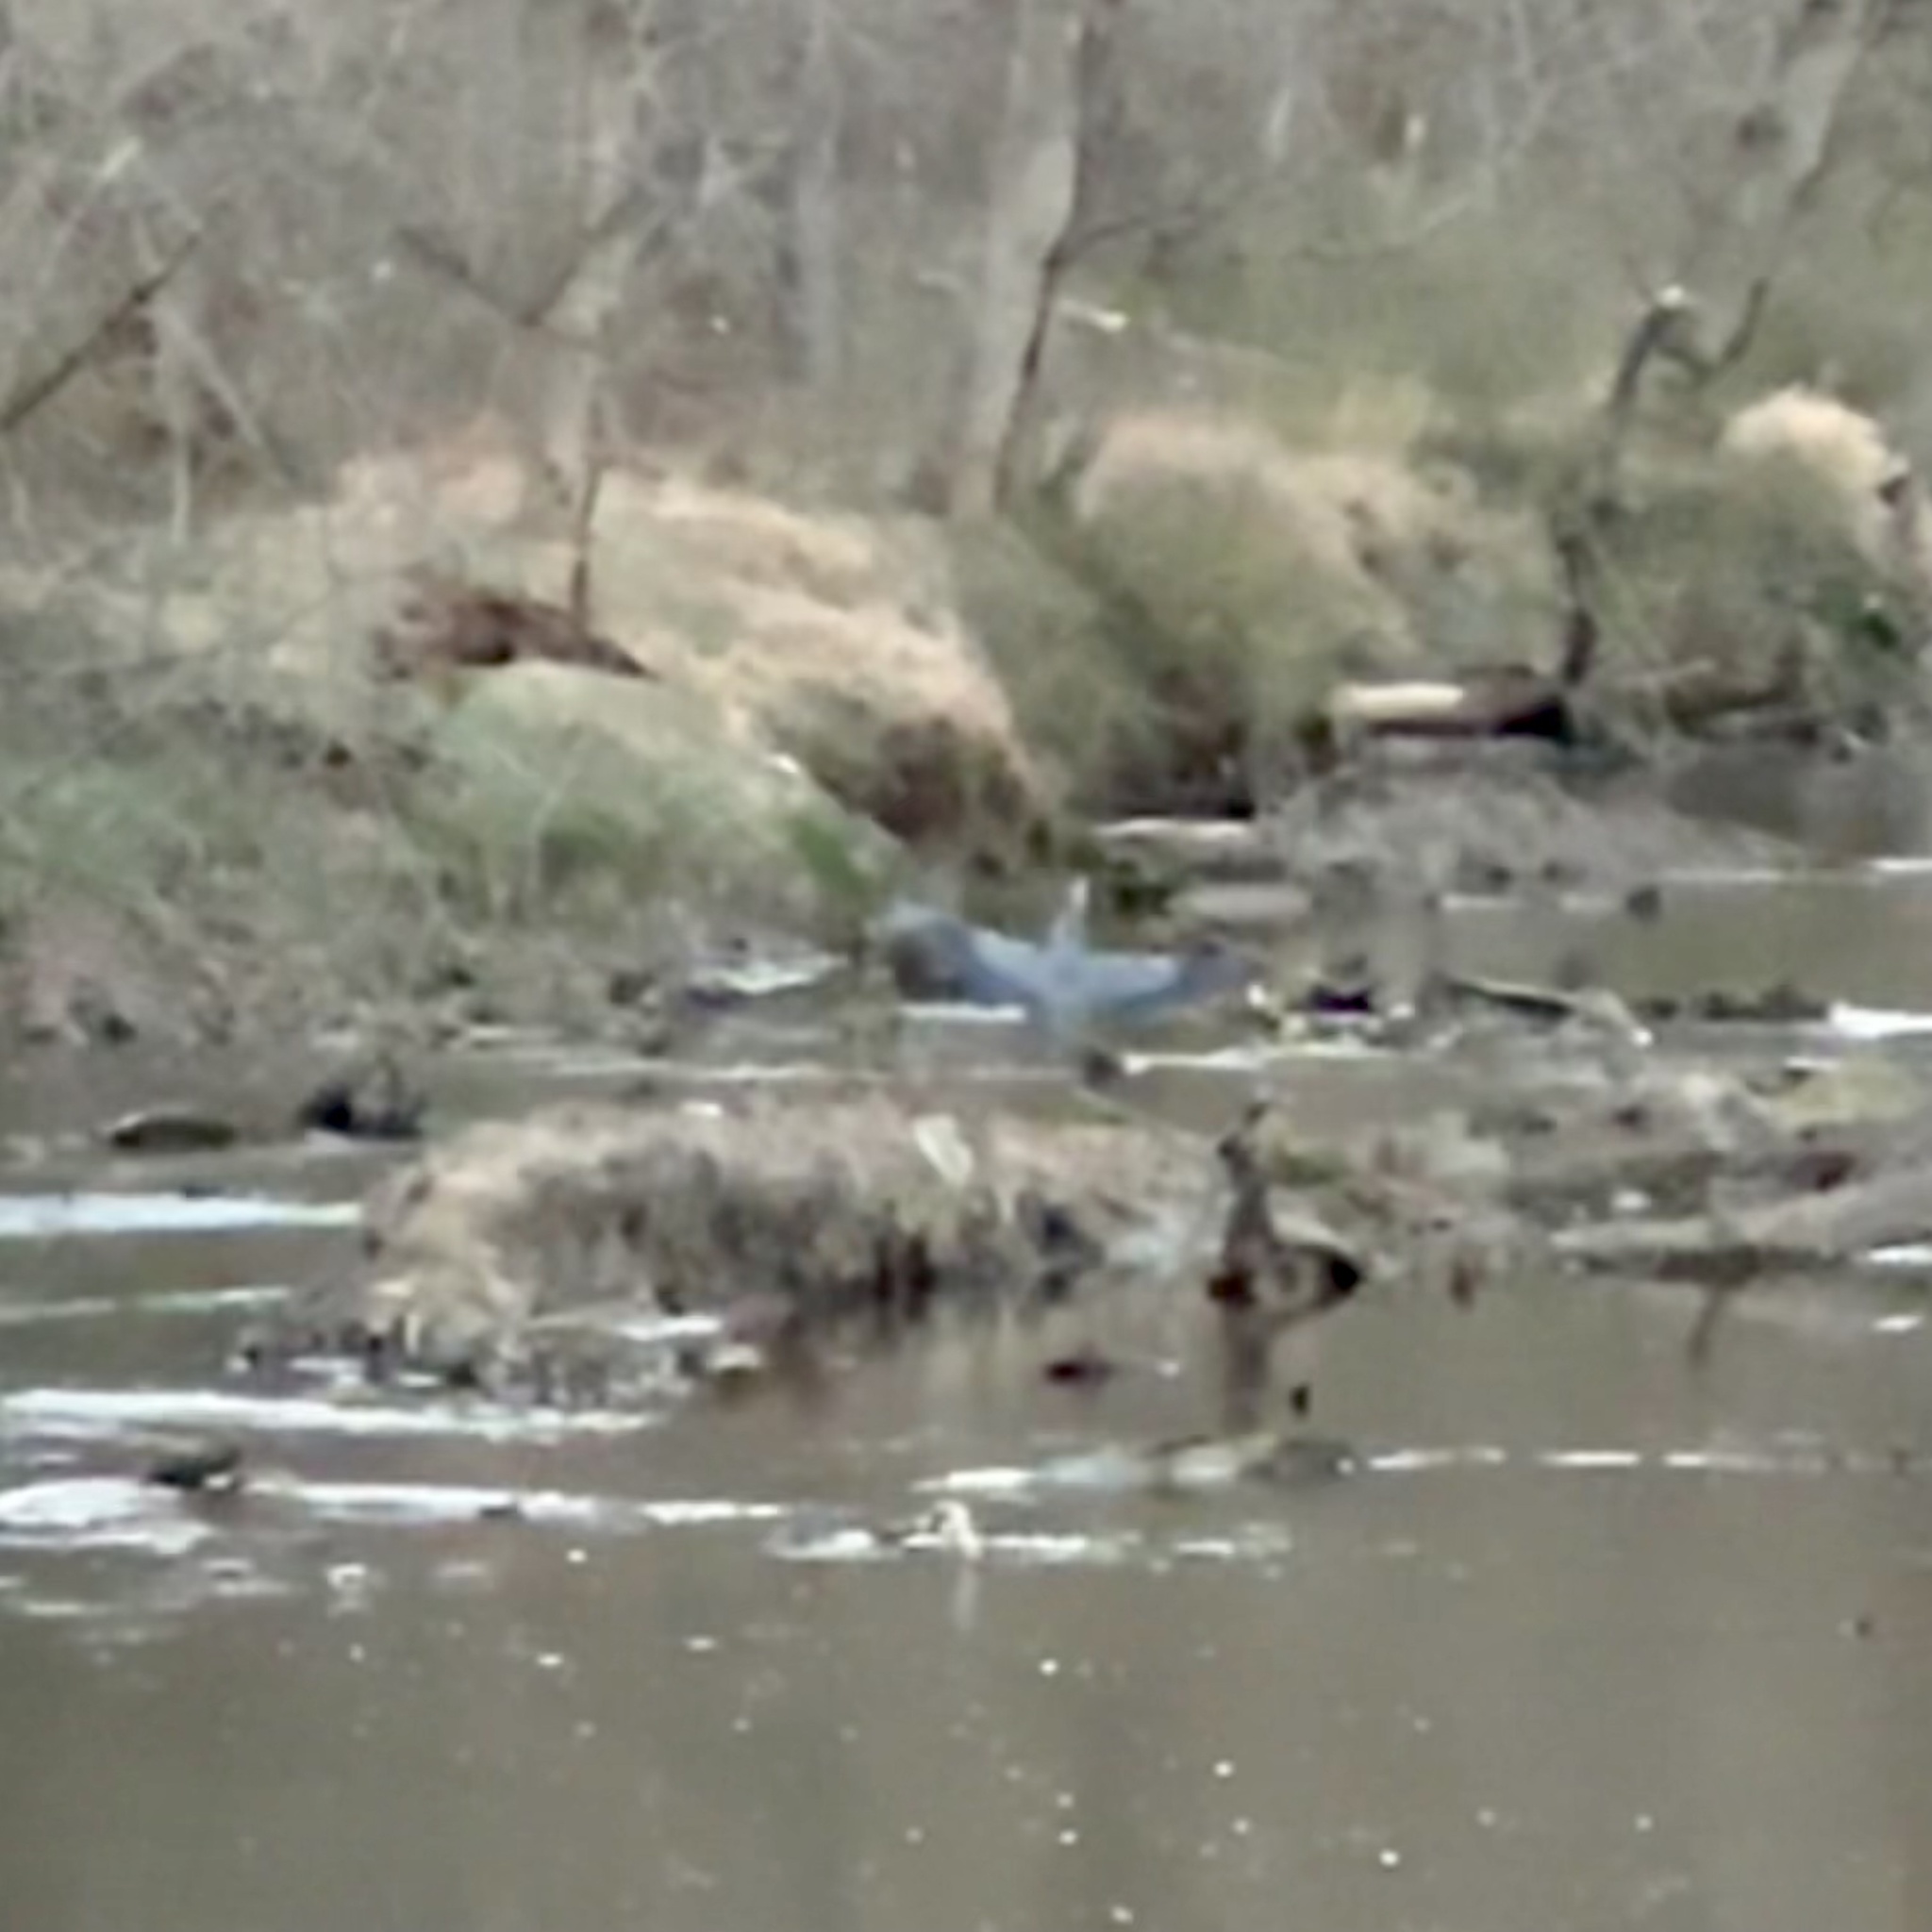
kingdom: Animalia
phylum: Chordata
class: Aves
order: Pelecaniformes
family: Ardeidae
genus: Ardea
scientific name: Ardea herodias
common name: Great blue heron
